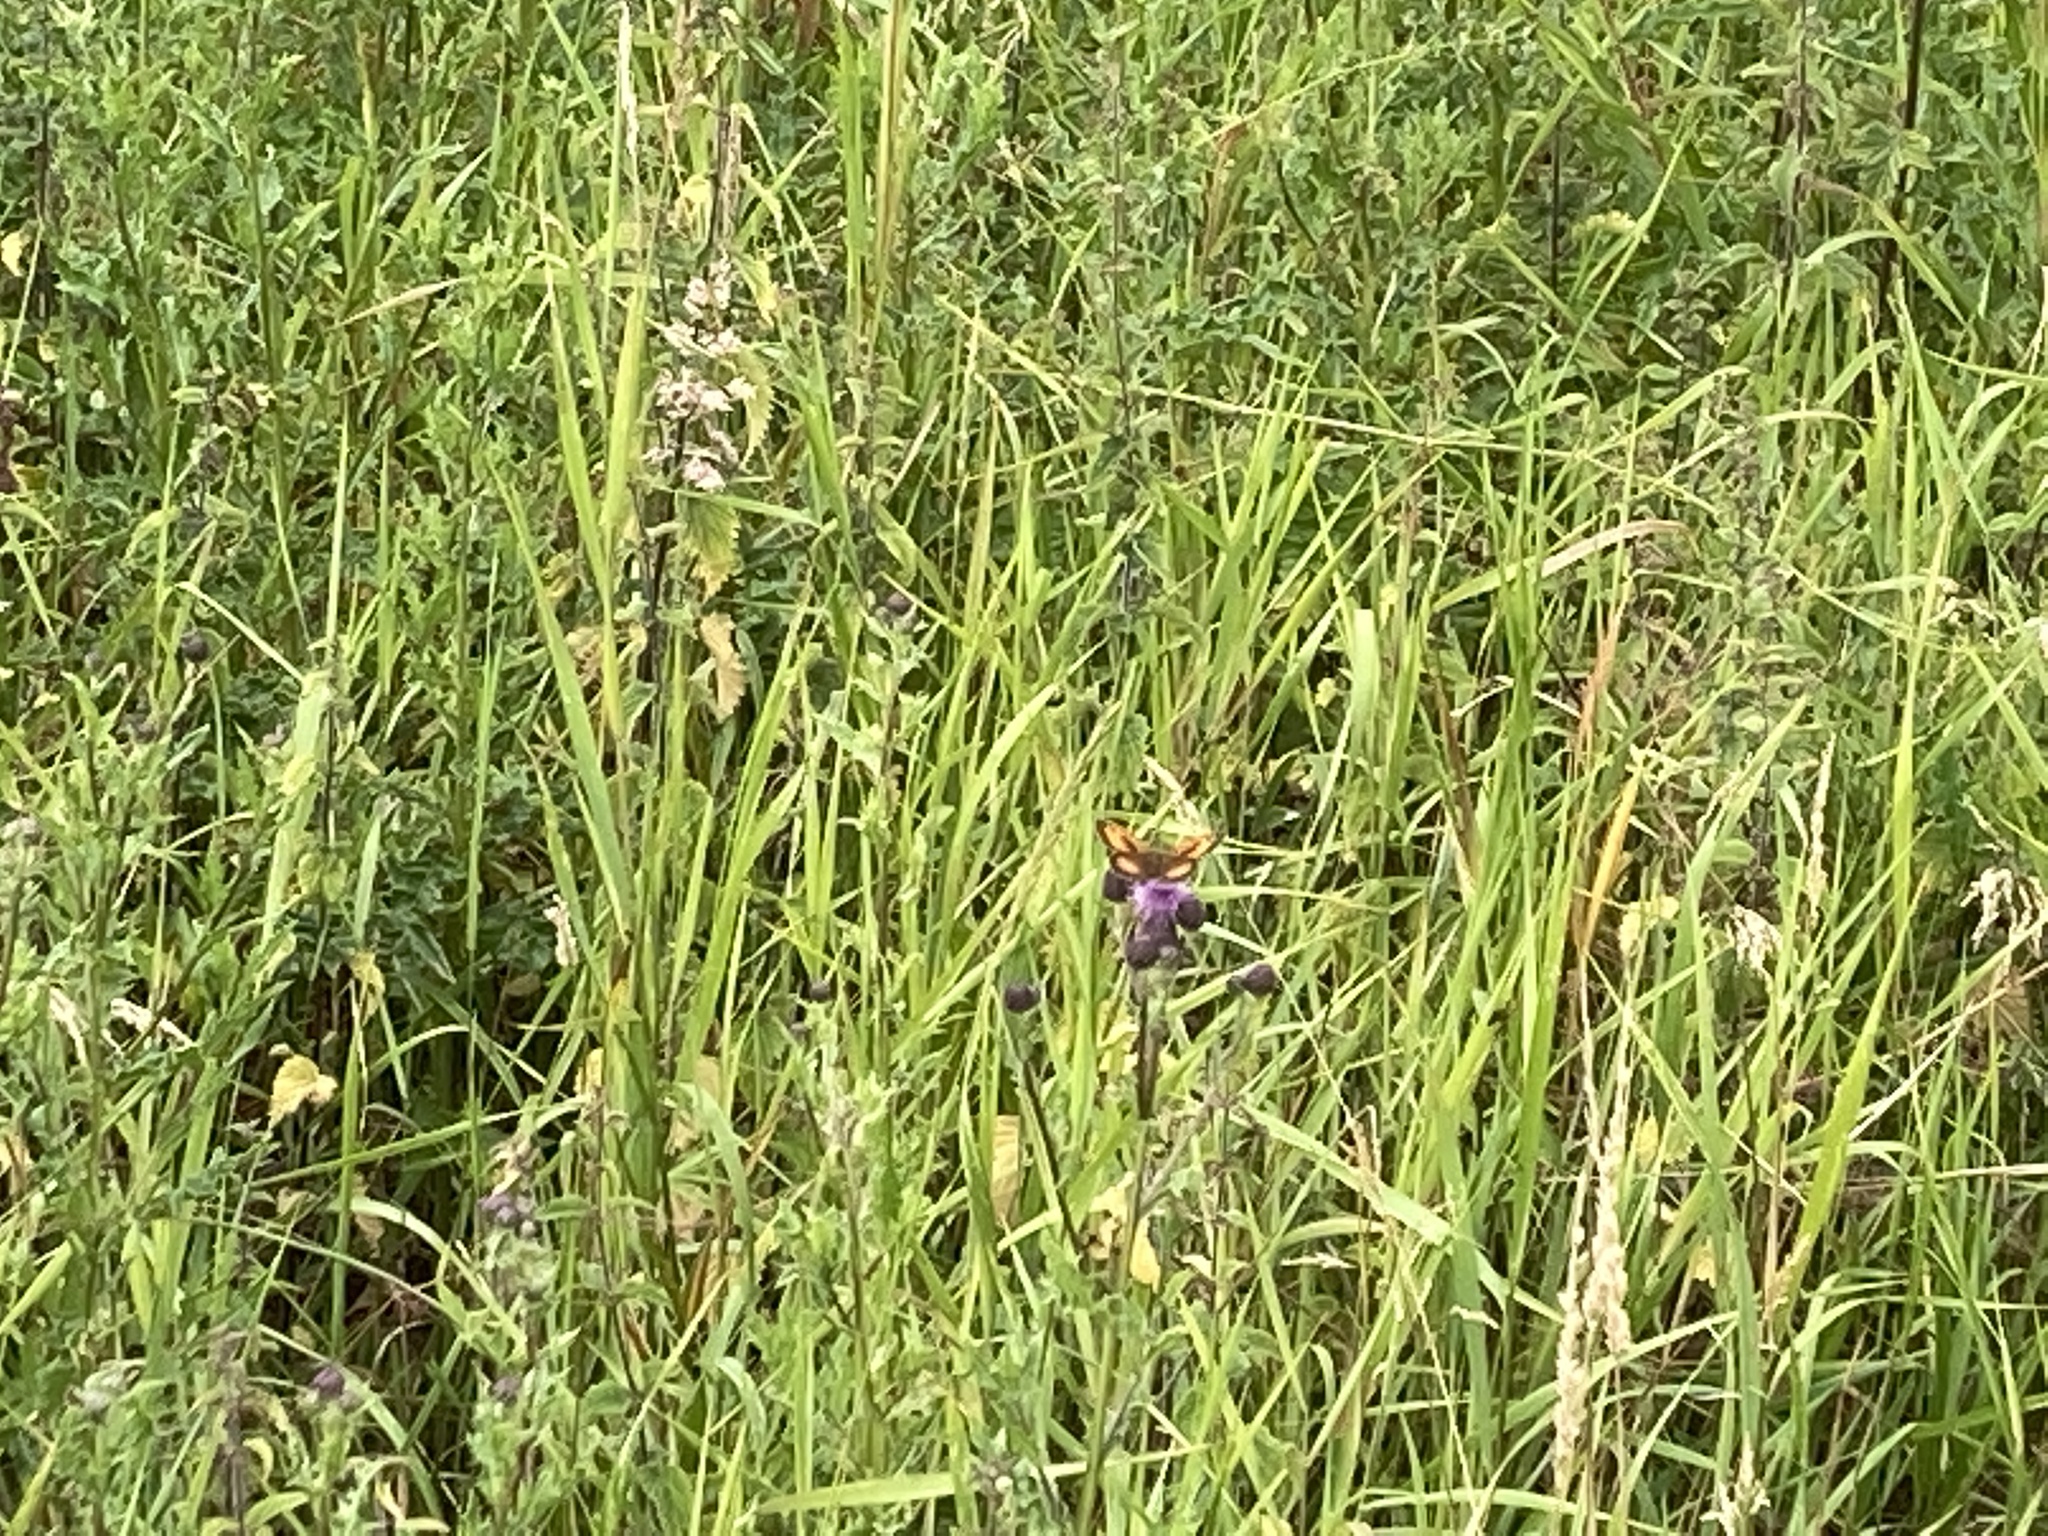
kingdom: Animalia
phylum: Arthropoda
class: Insecta
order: Lepidoptera
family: Nymphalidae
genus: Pyronia
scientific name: Pyronia tithonus
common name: Gatekeeper
